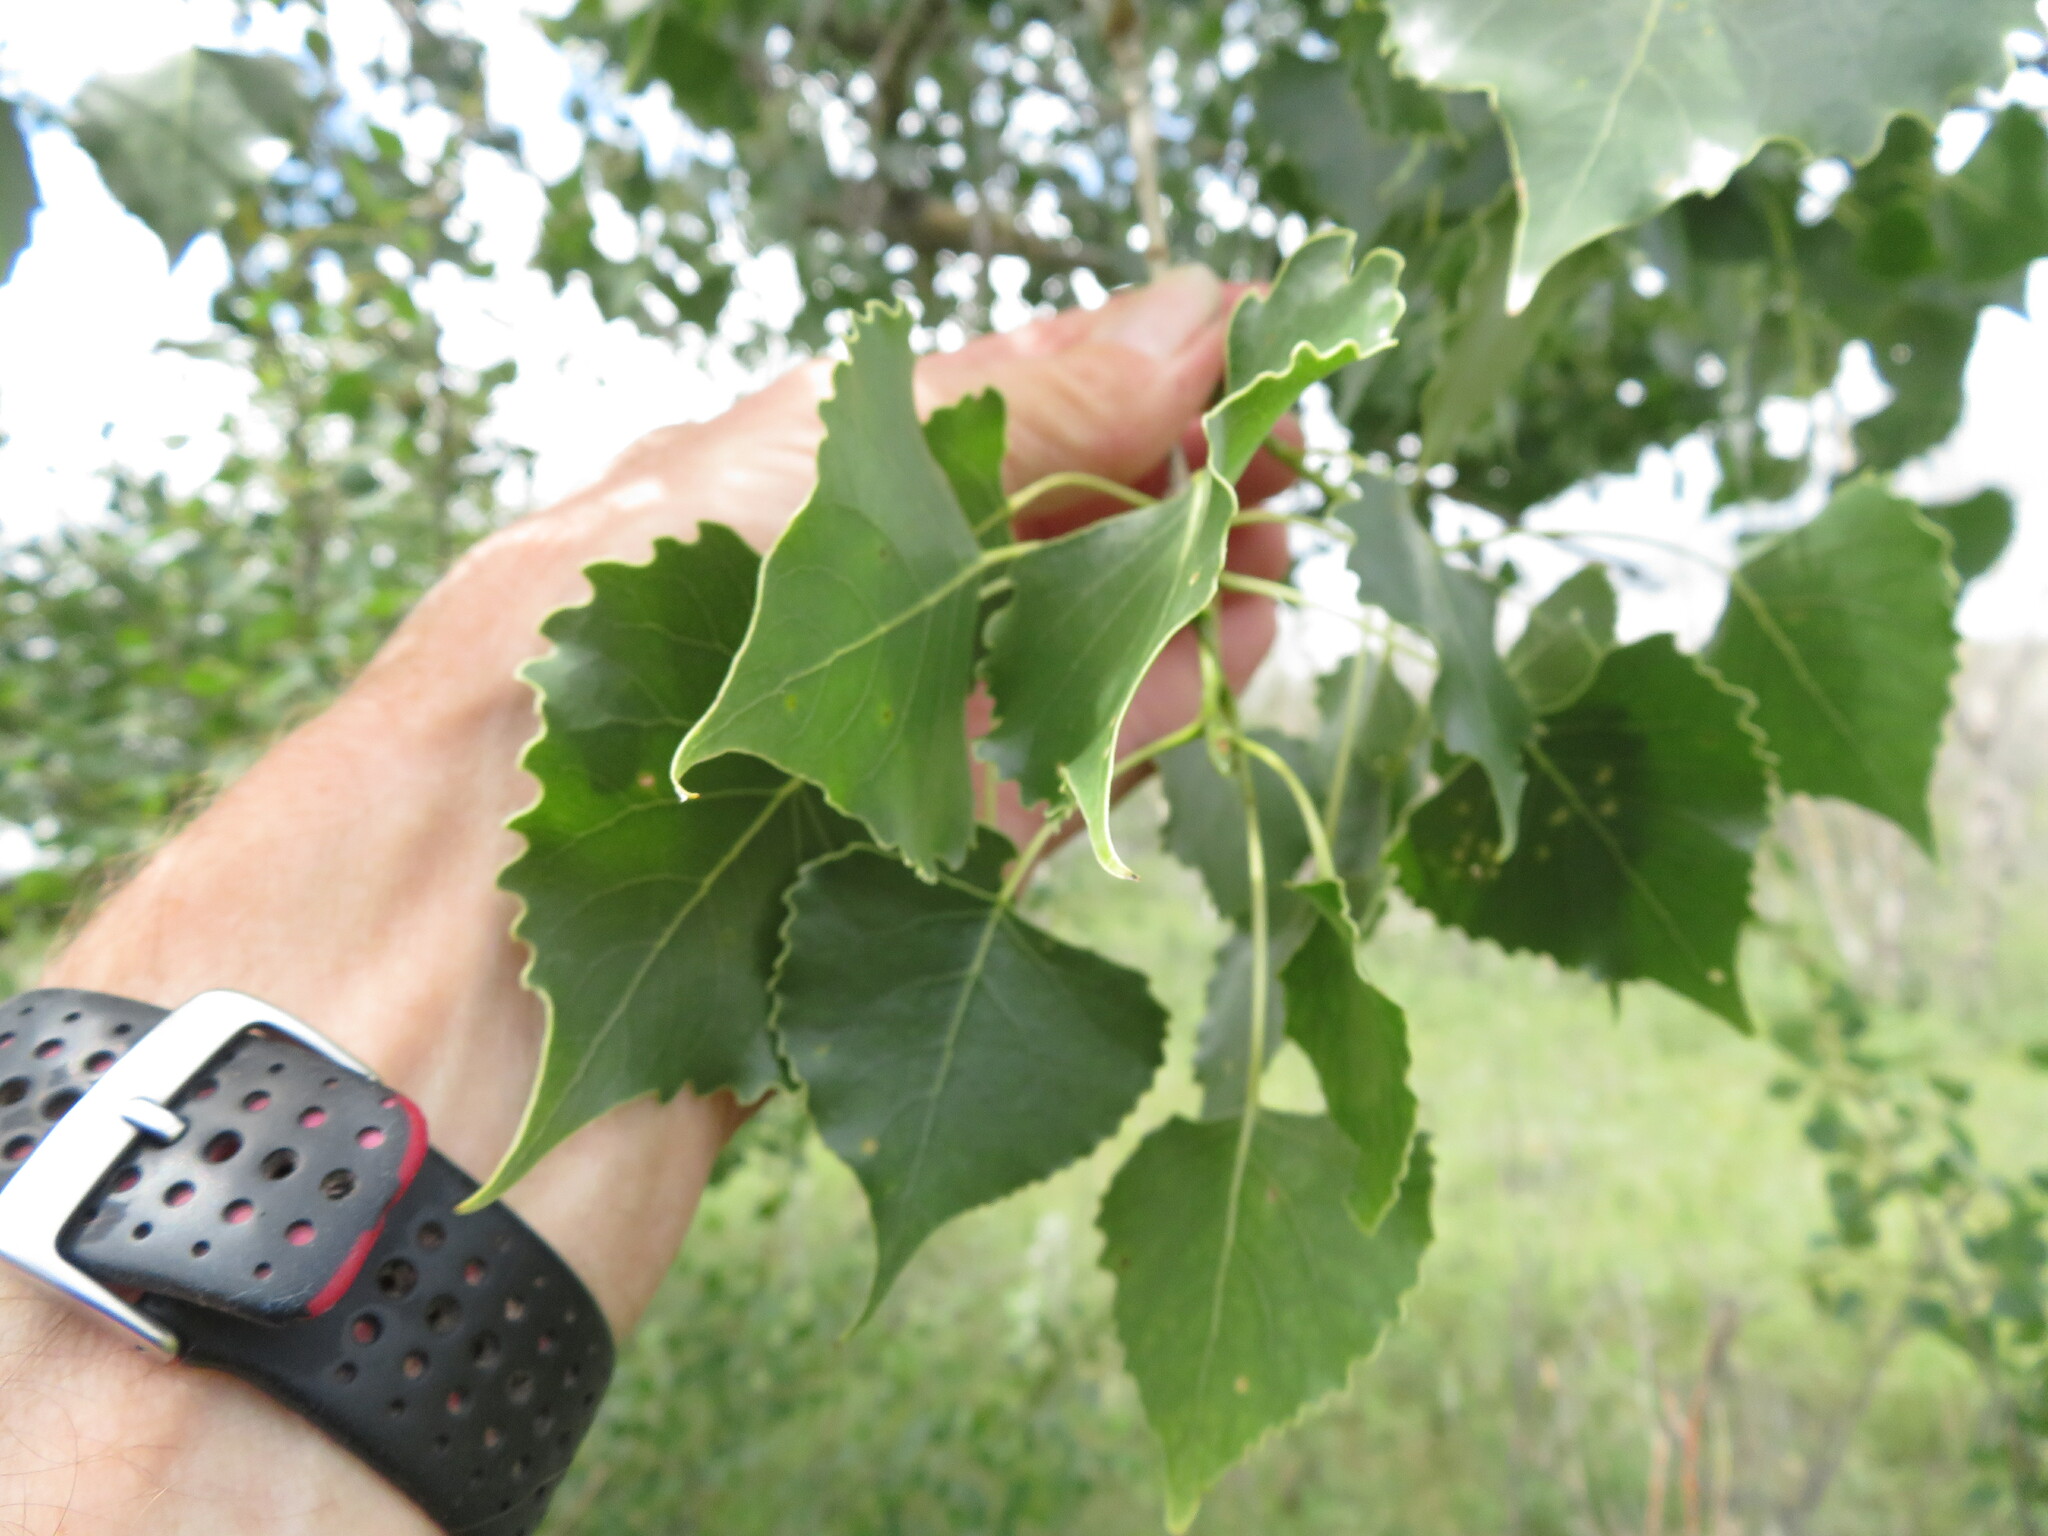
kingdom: Plantae
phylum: Tracheophyta
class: Magnoliopsida
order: Malpighiales
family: Salicaceae
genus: Populus
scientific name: Populus deltoides
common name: Eastern cottonwood
